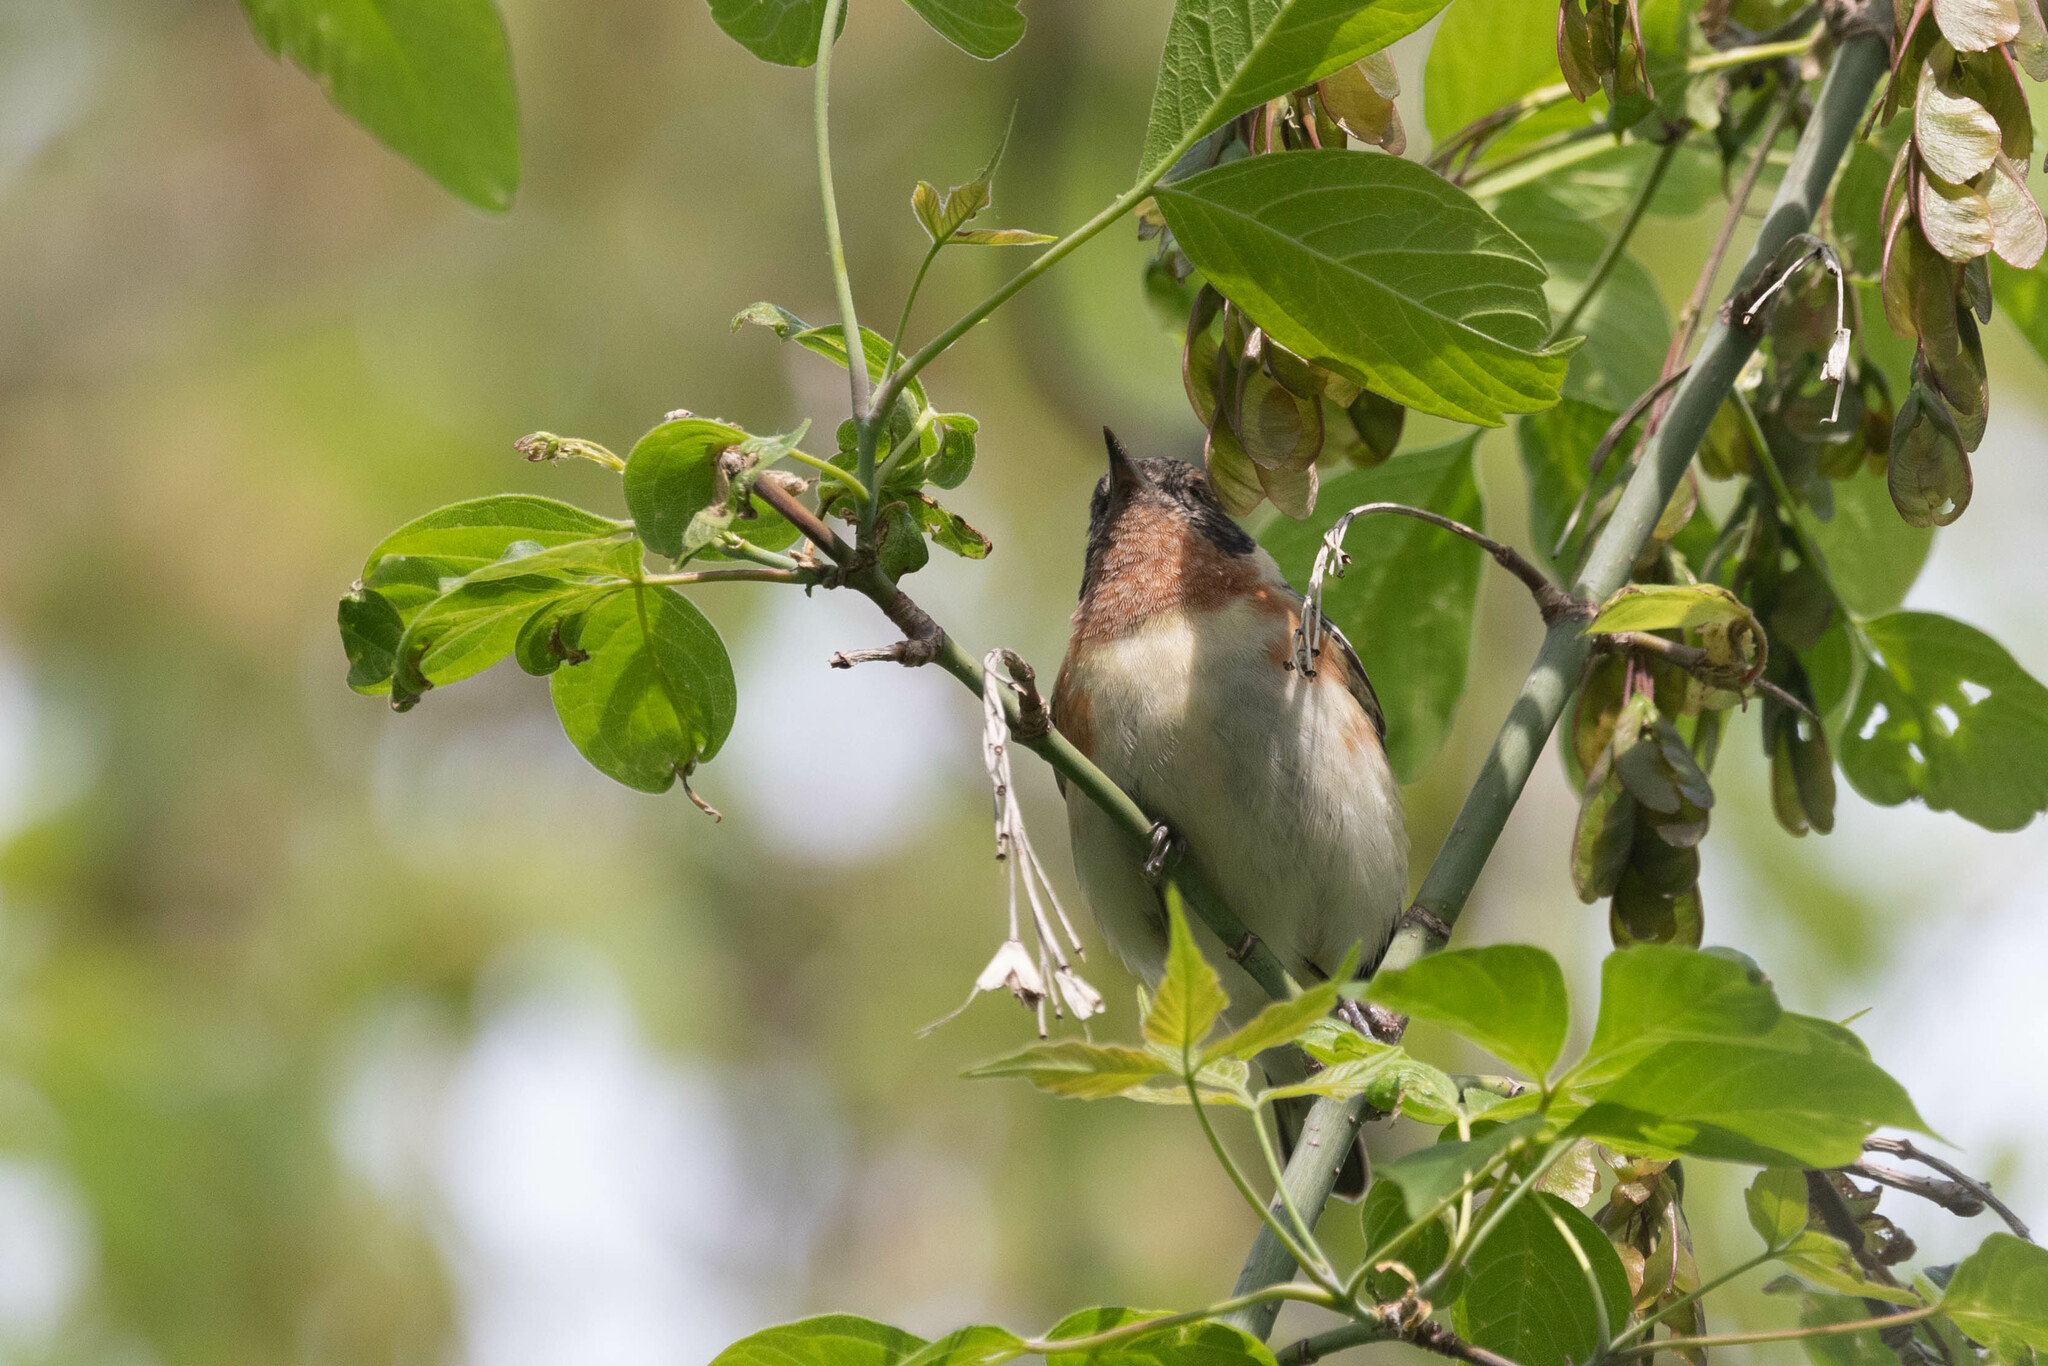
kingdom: Animalia
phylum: Chordata
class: Aves
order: Passeriformes
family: Parulidae
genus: Setophaga
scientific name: Setophaga castanea
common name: Bay-breasted warbler
